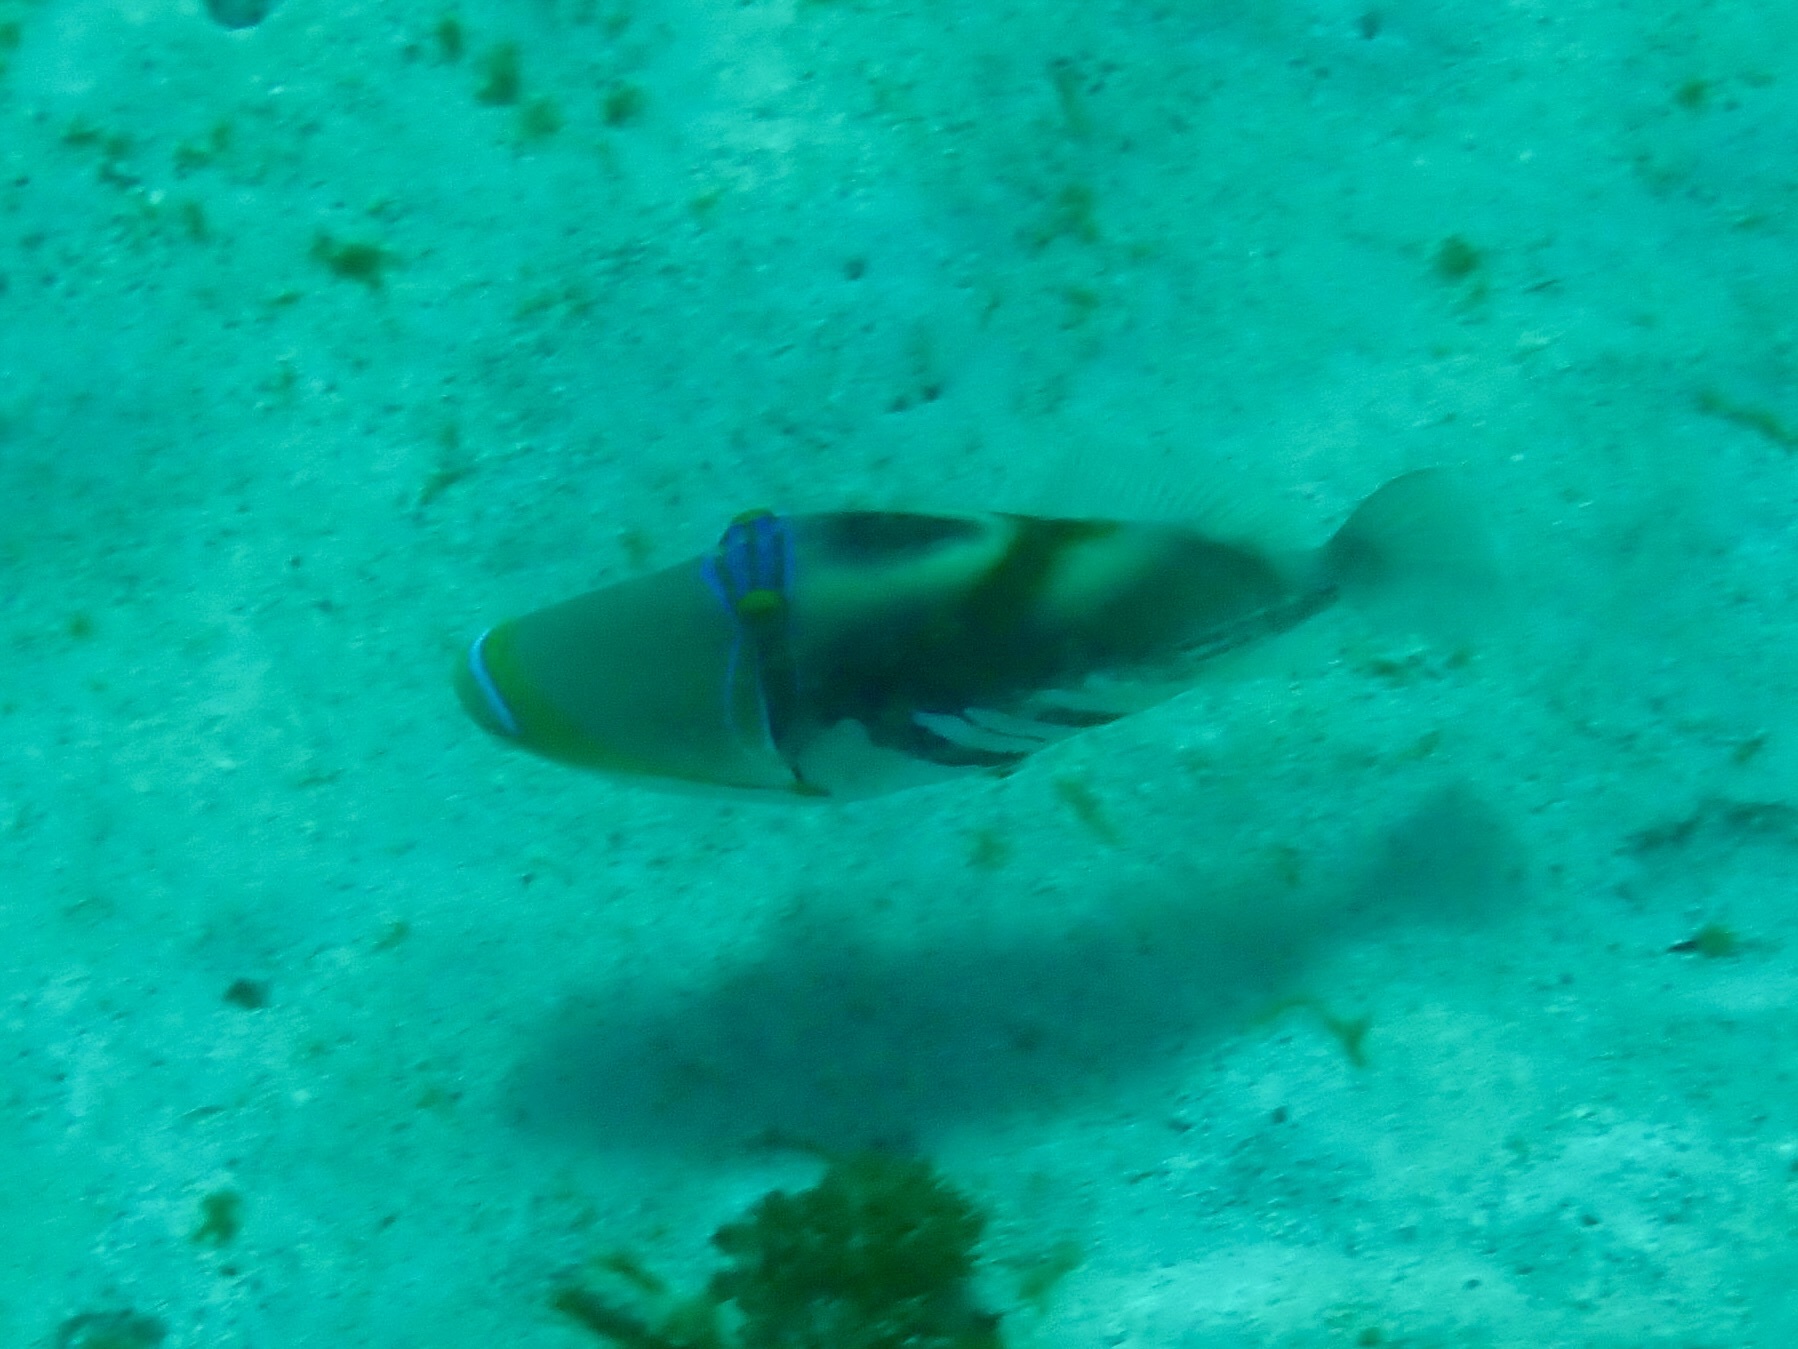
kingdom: Animalia
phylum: Chordata
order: Tetraodontiformes
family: Balistidae
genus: Rhinecanthus
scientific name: Rhinecanthus aculeatus
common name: White-banded triggerfish
